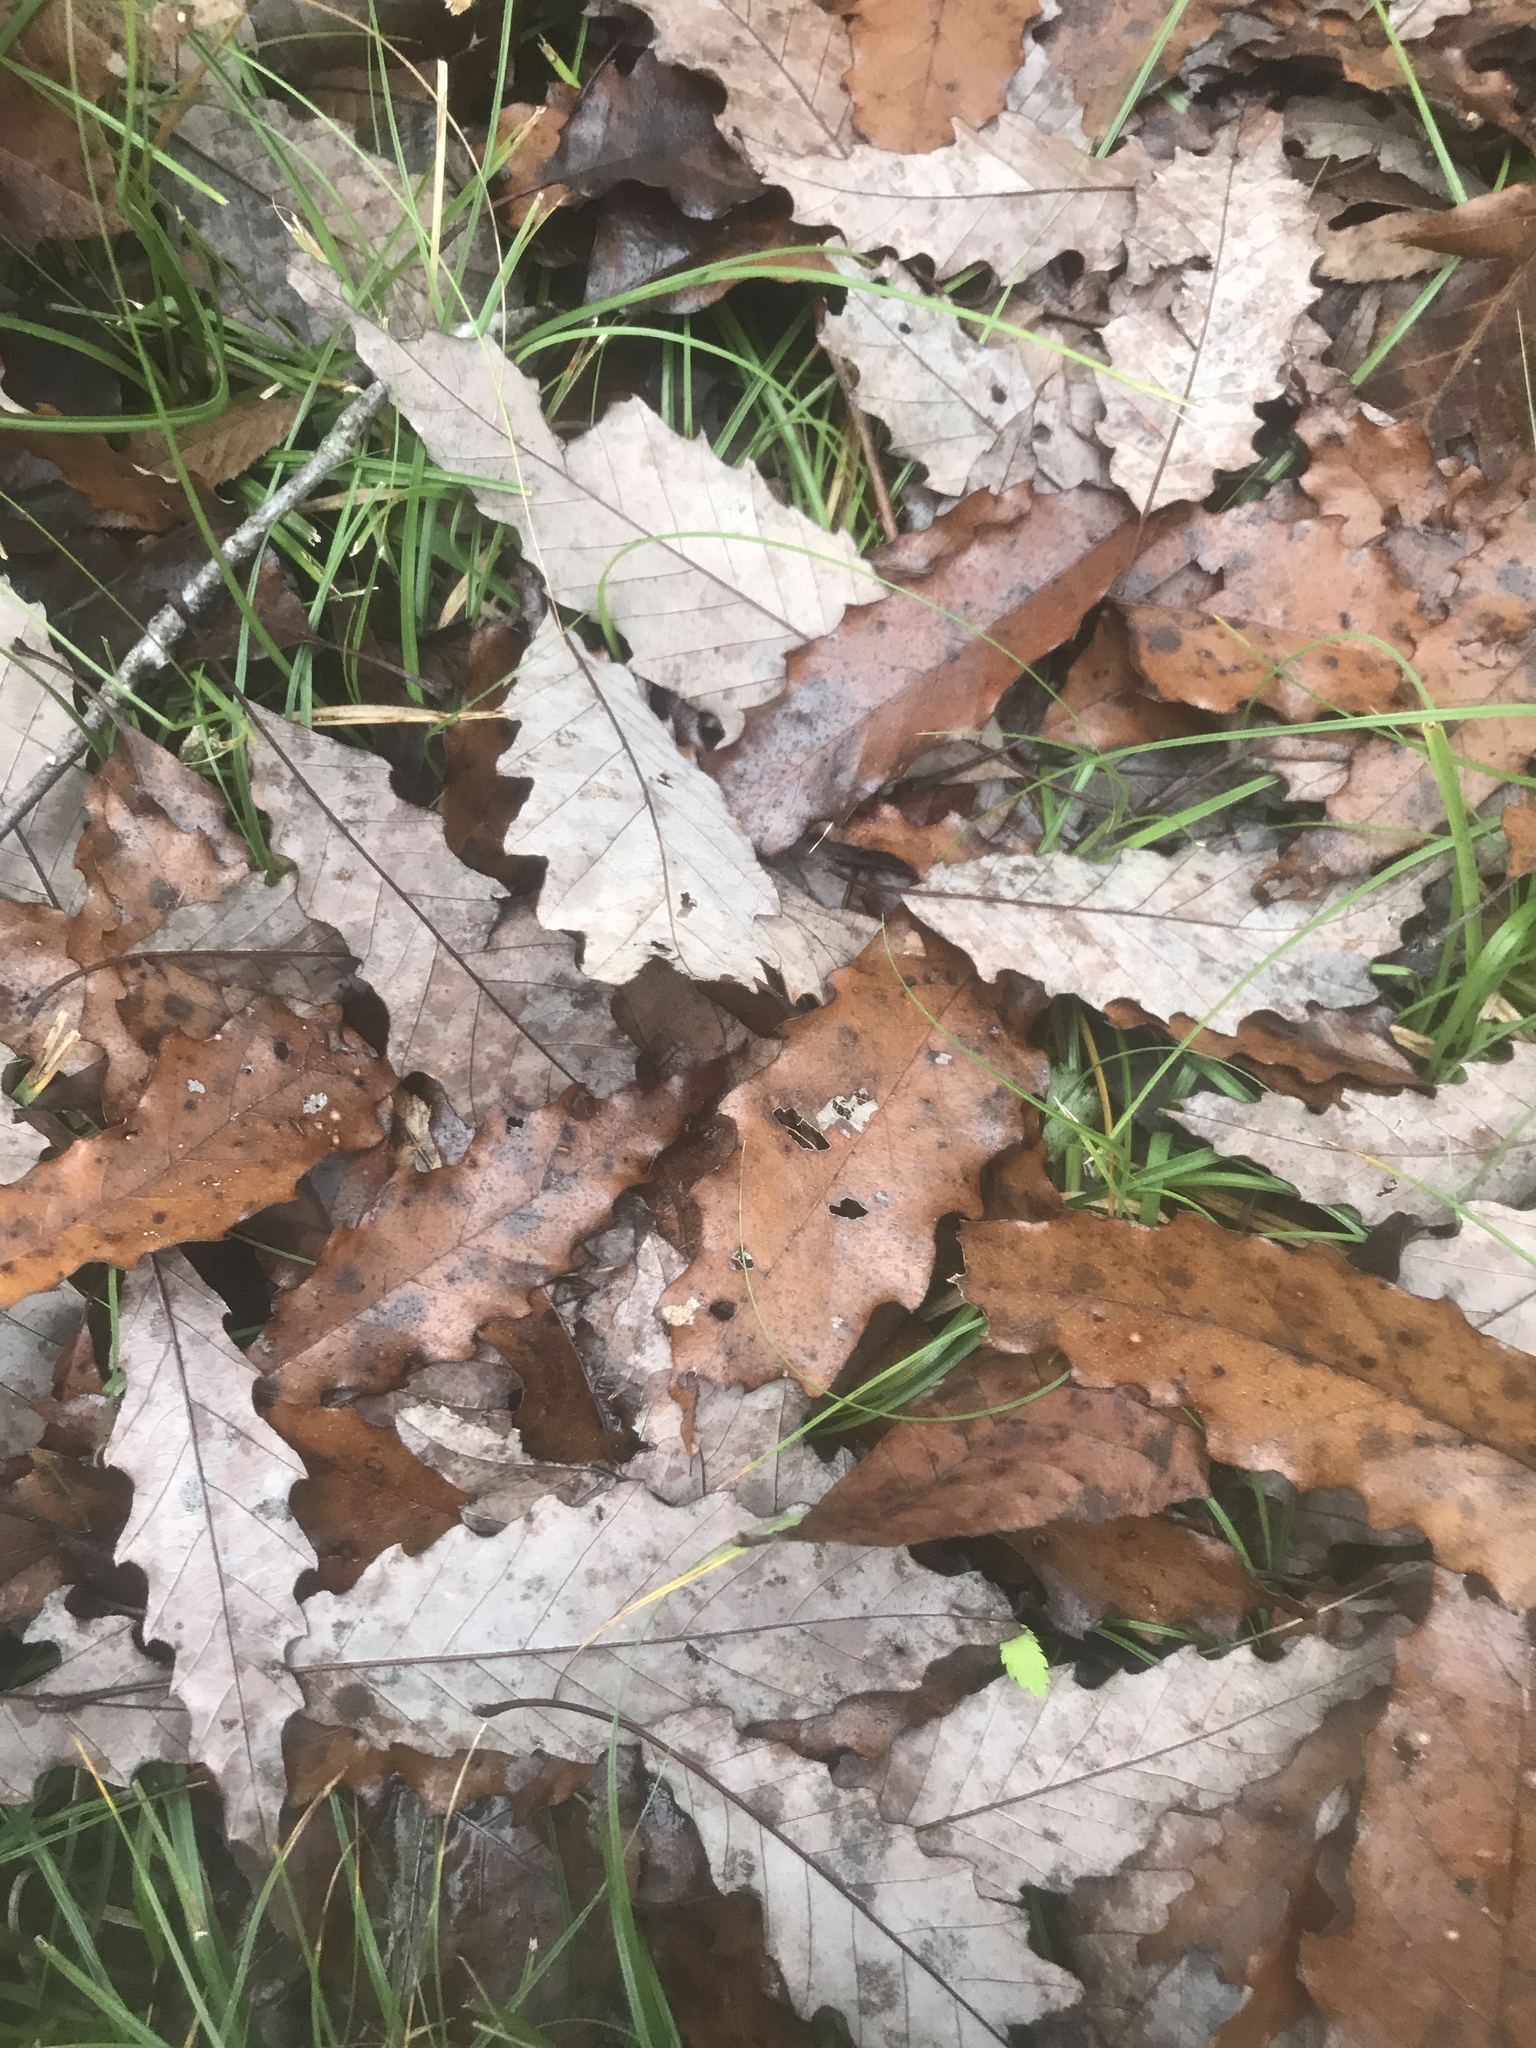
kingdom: Plantae
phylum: Tracheophyta
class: Magnoliopsida
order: Fagales
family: Fagaceae
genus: Quercus
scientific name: Quercus muehlenbergii
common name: Chinkapin oak
